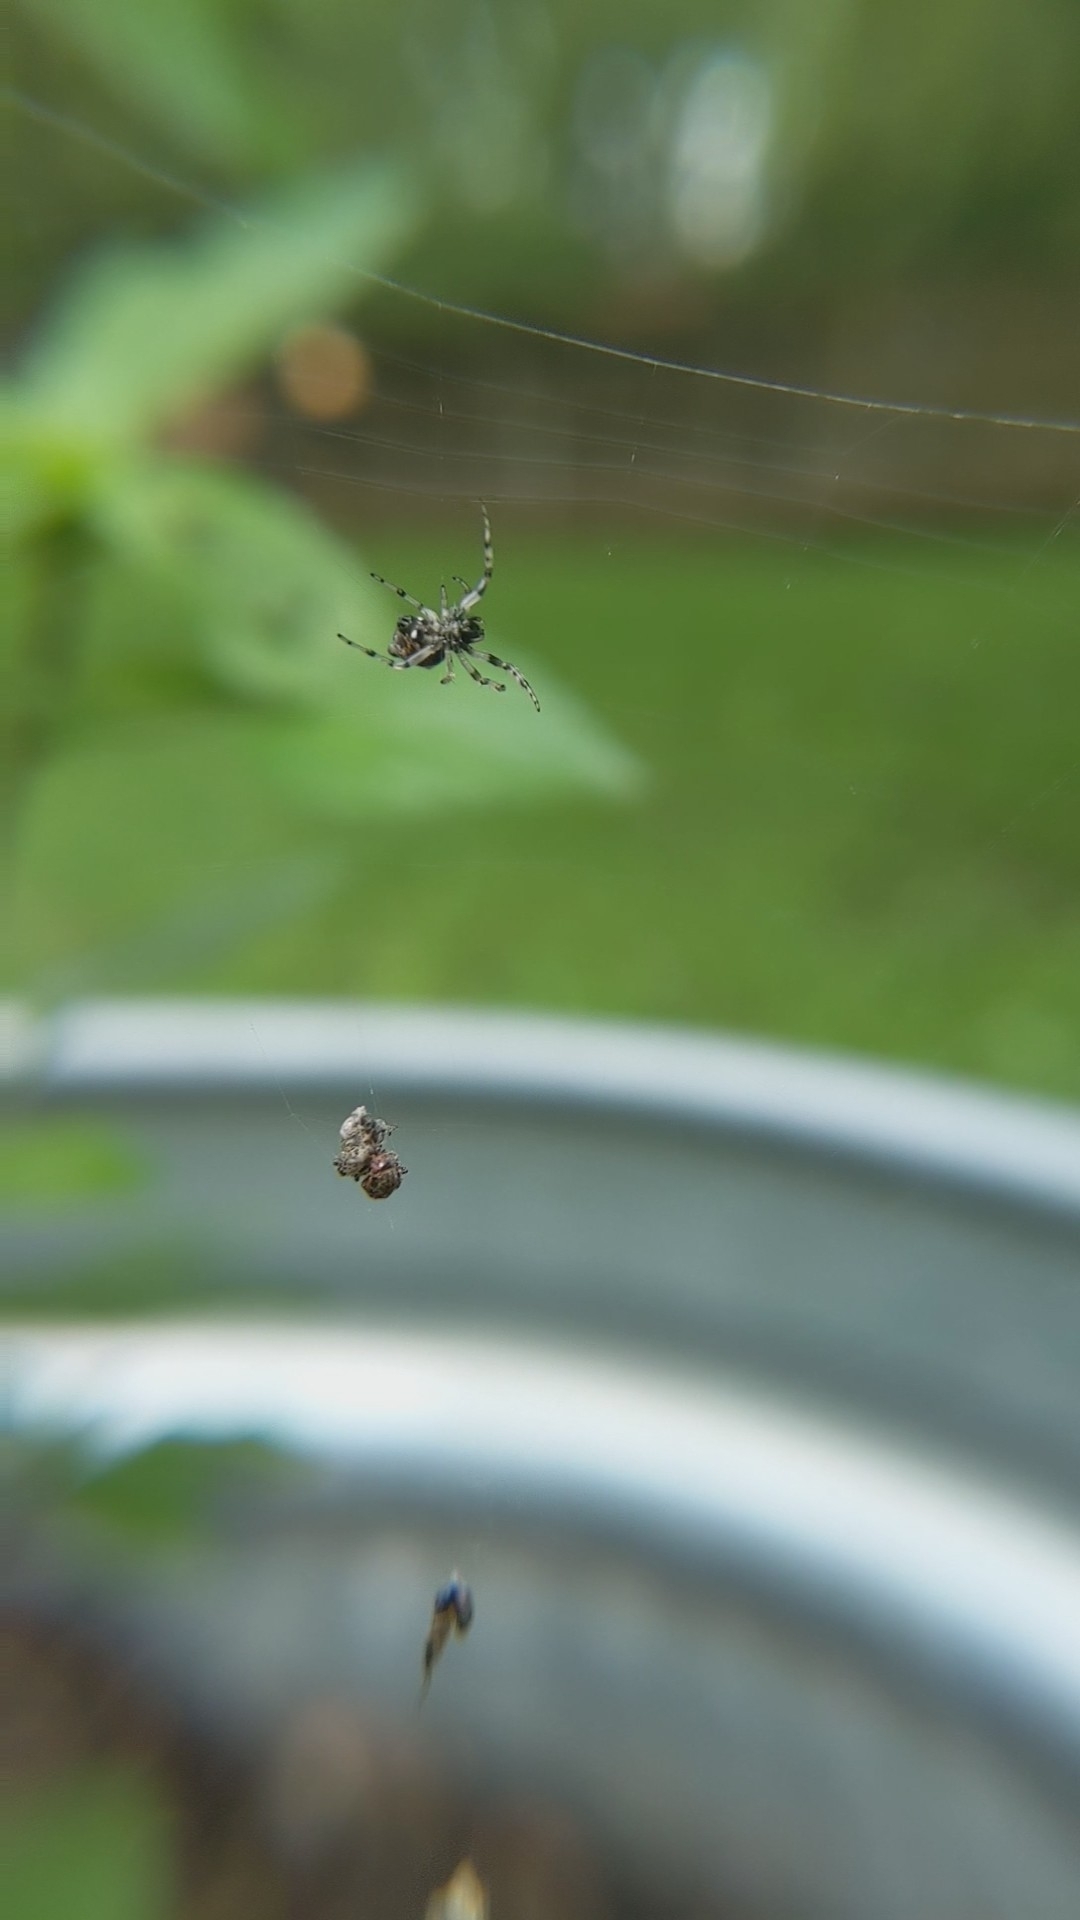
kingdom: Animalia
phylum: Arthropoda
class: Arachnida
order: Araneae
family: Araneidae
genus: Cyclosa
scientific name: Cyclosa turbinata
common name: Orb weavers
